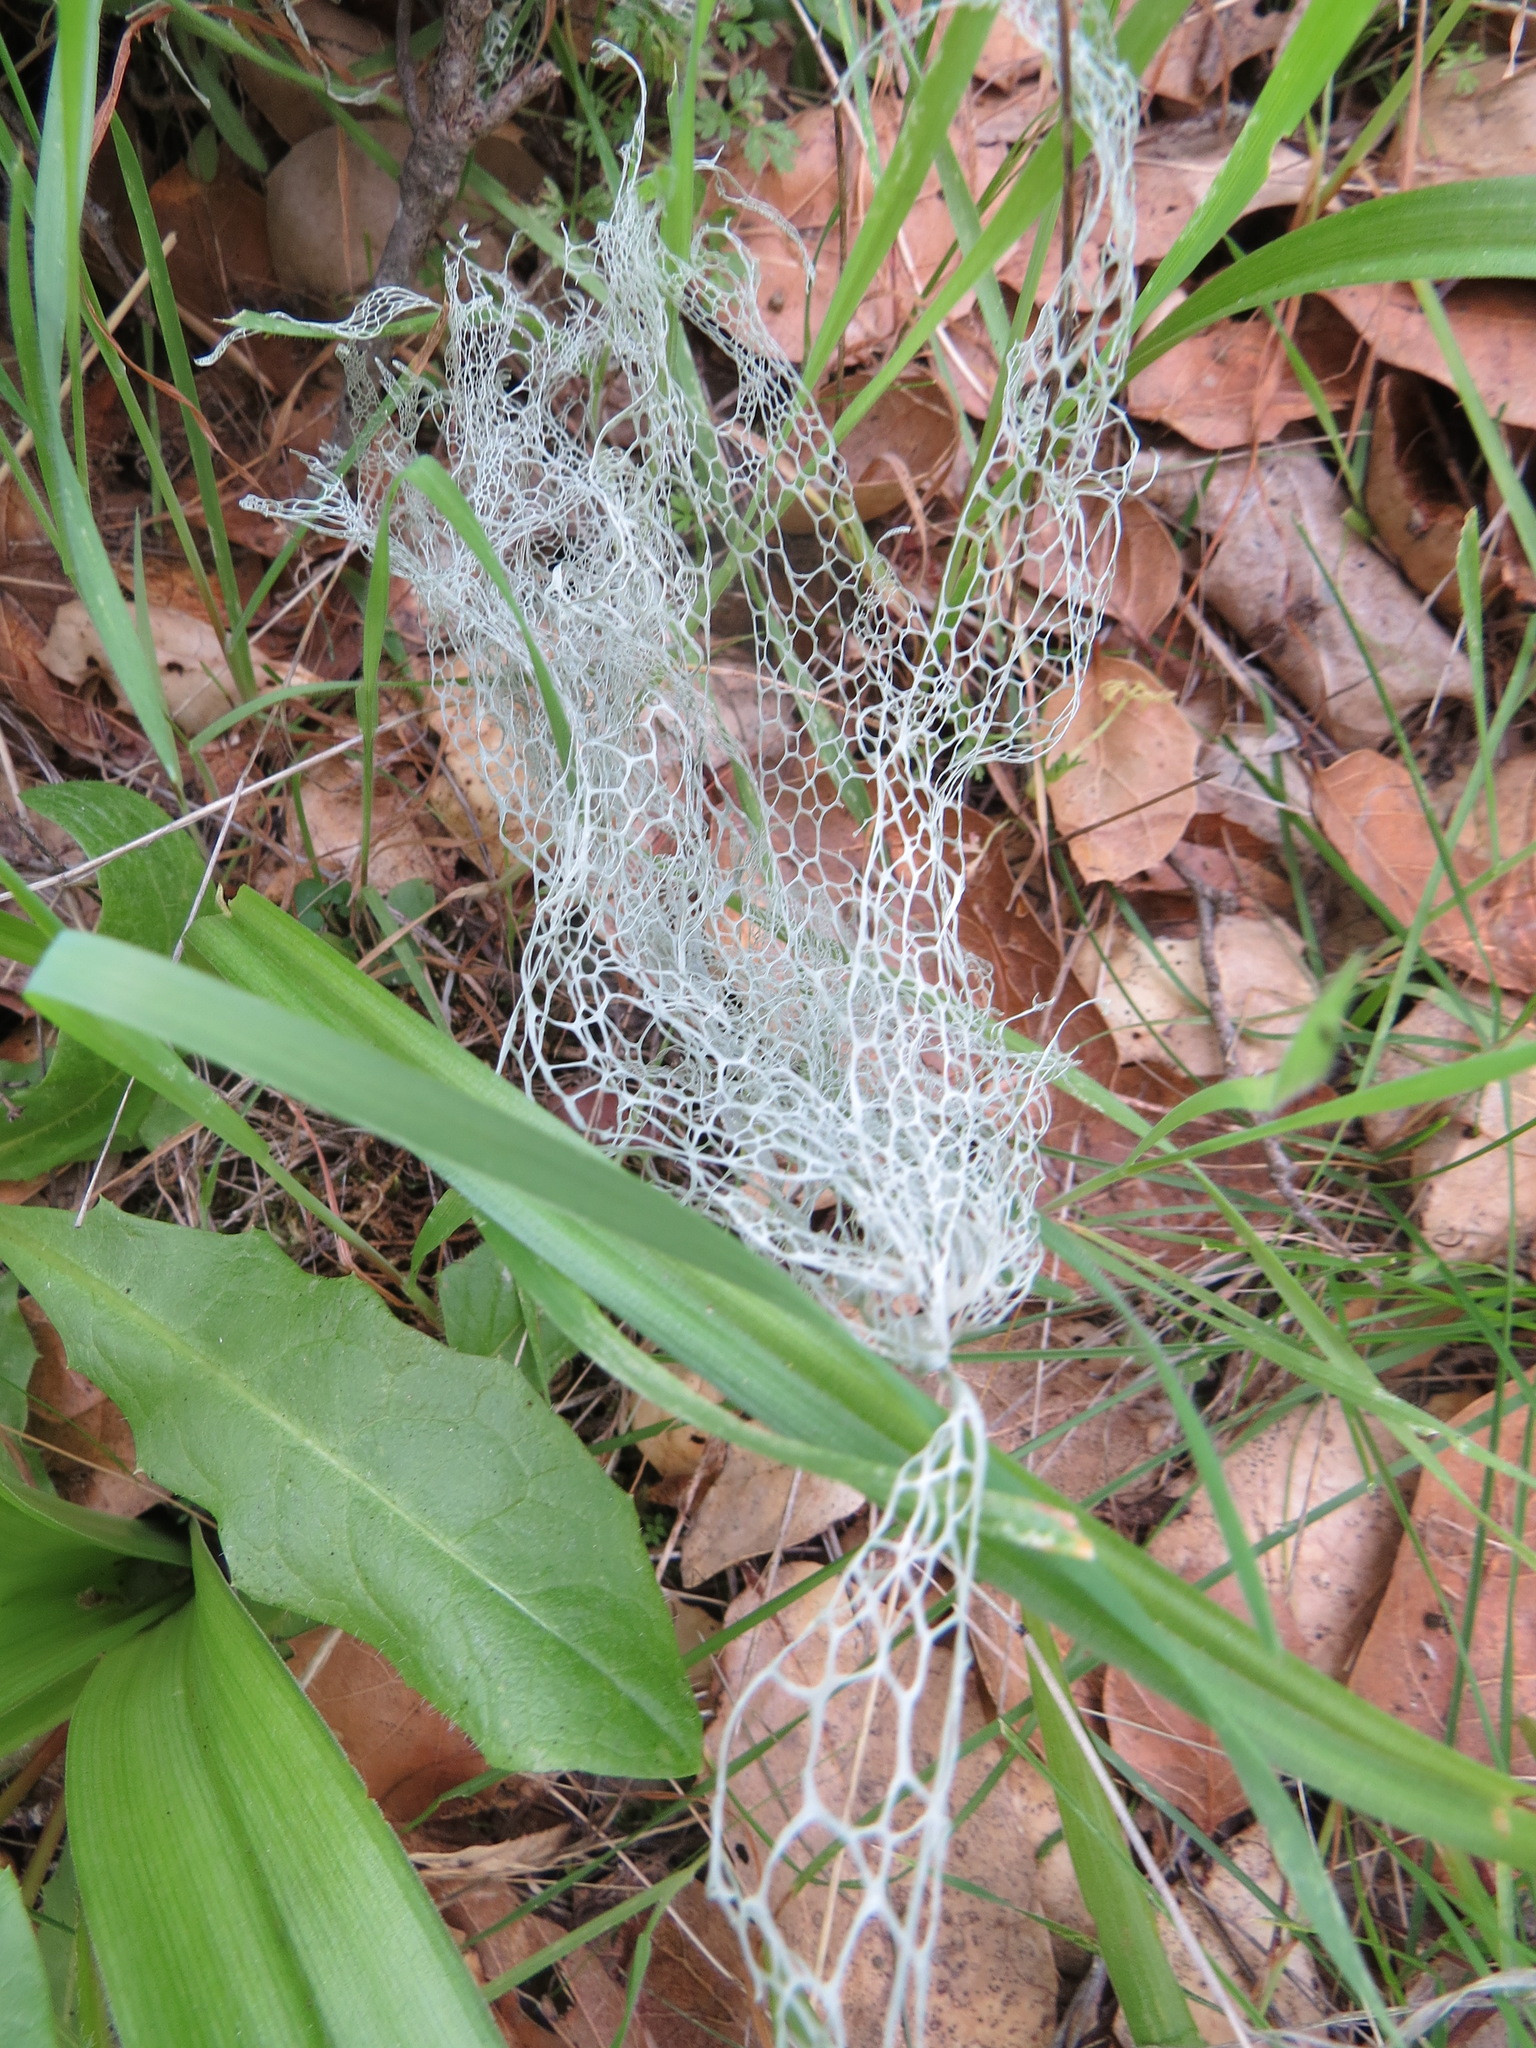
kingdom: Fungi
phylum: Ascomycota
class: Lecanoromycetes
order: Lecanorales
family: Ramalinaceae
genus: Ramalina
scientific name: Ramalina menziesii
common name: Lace lichen
